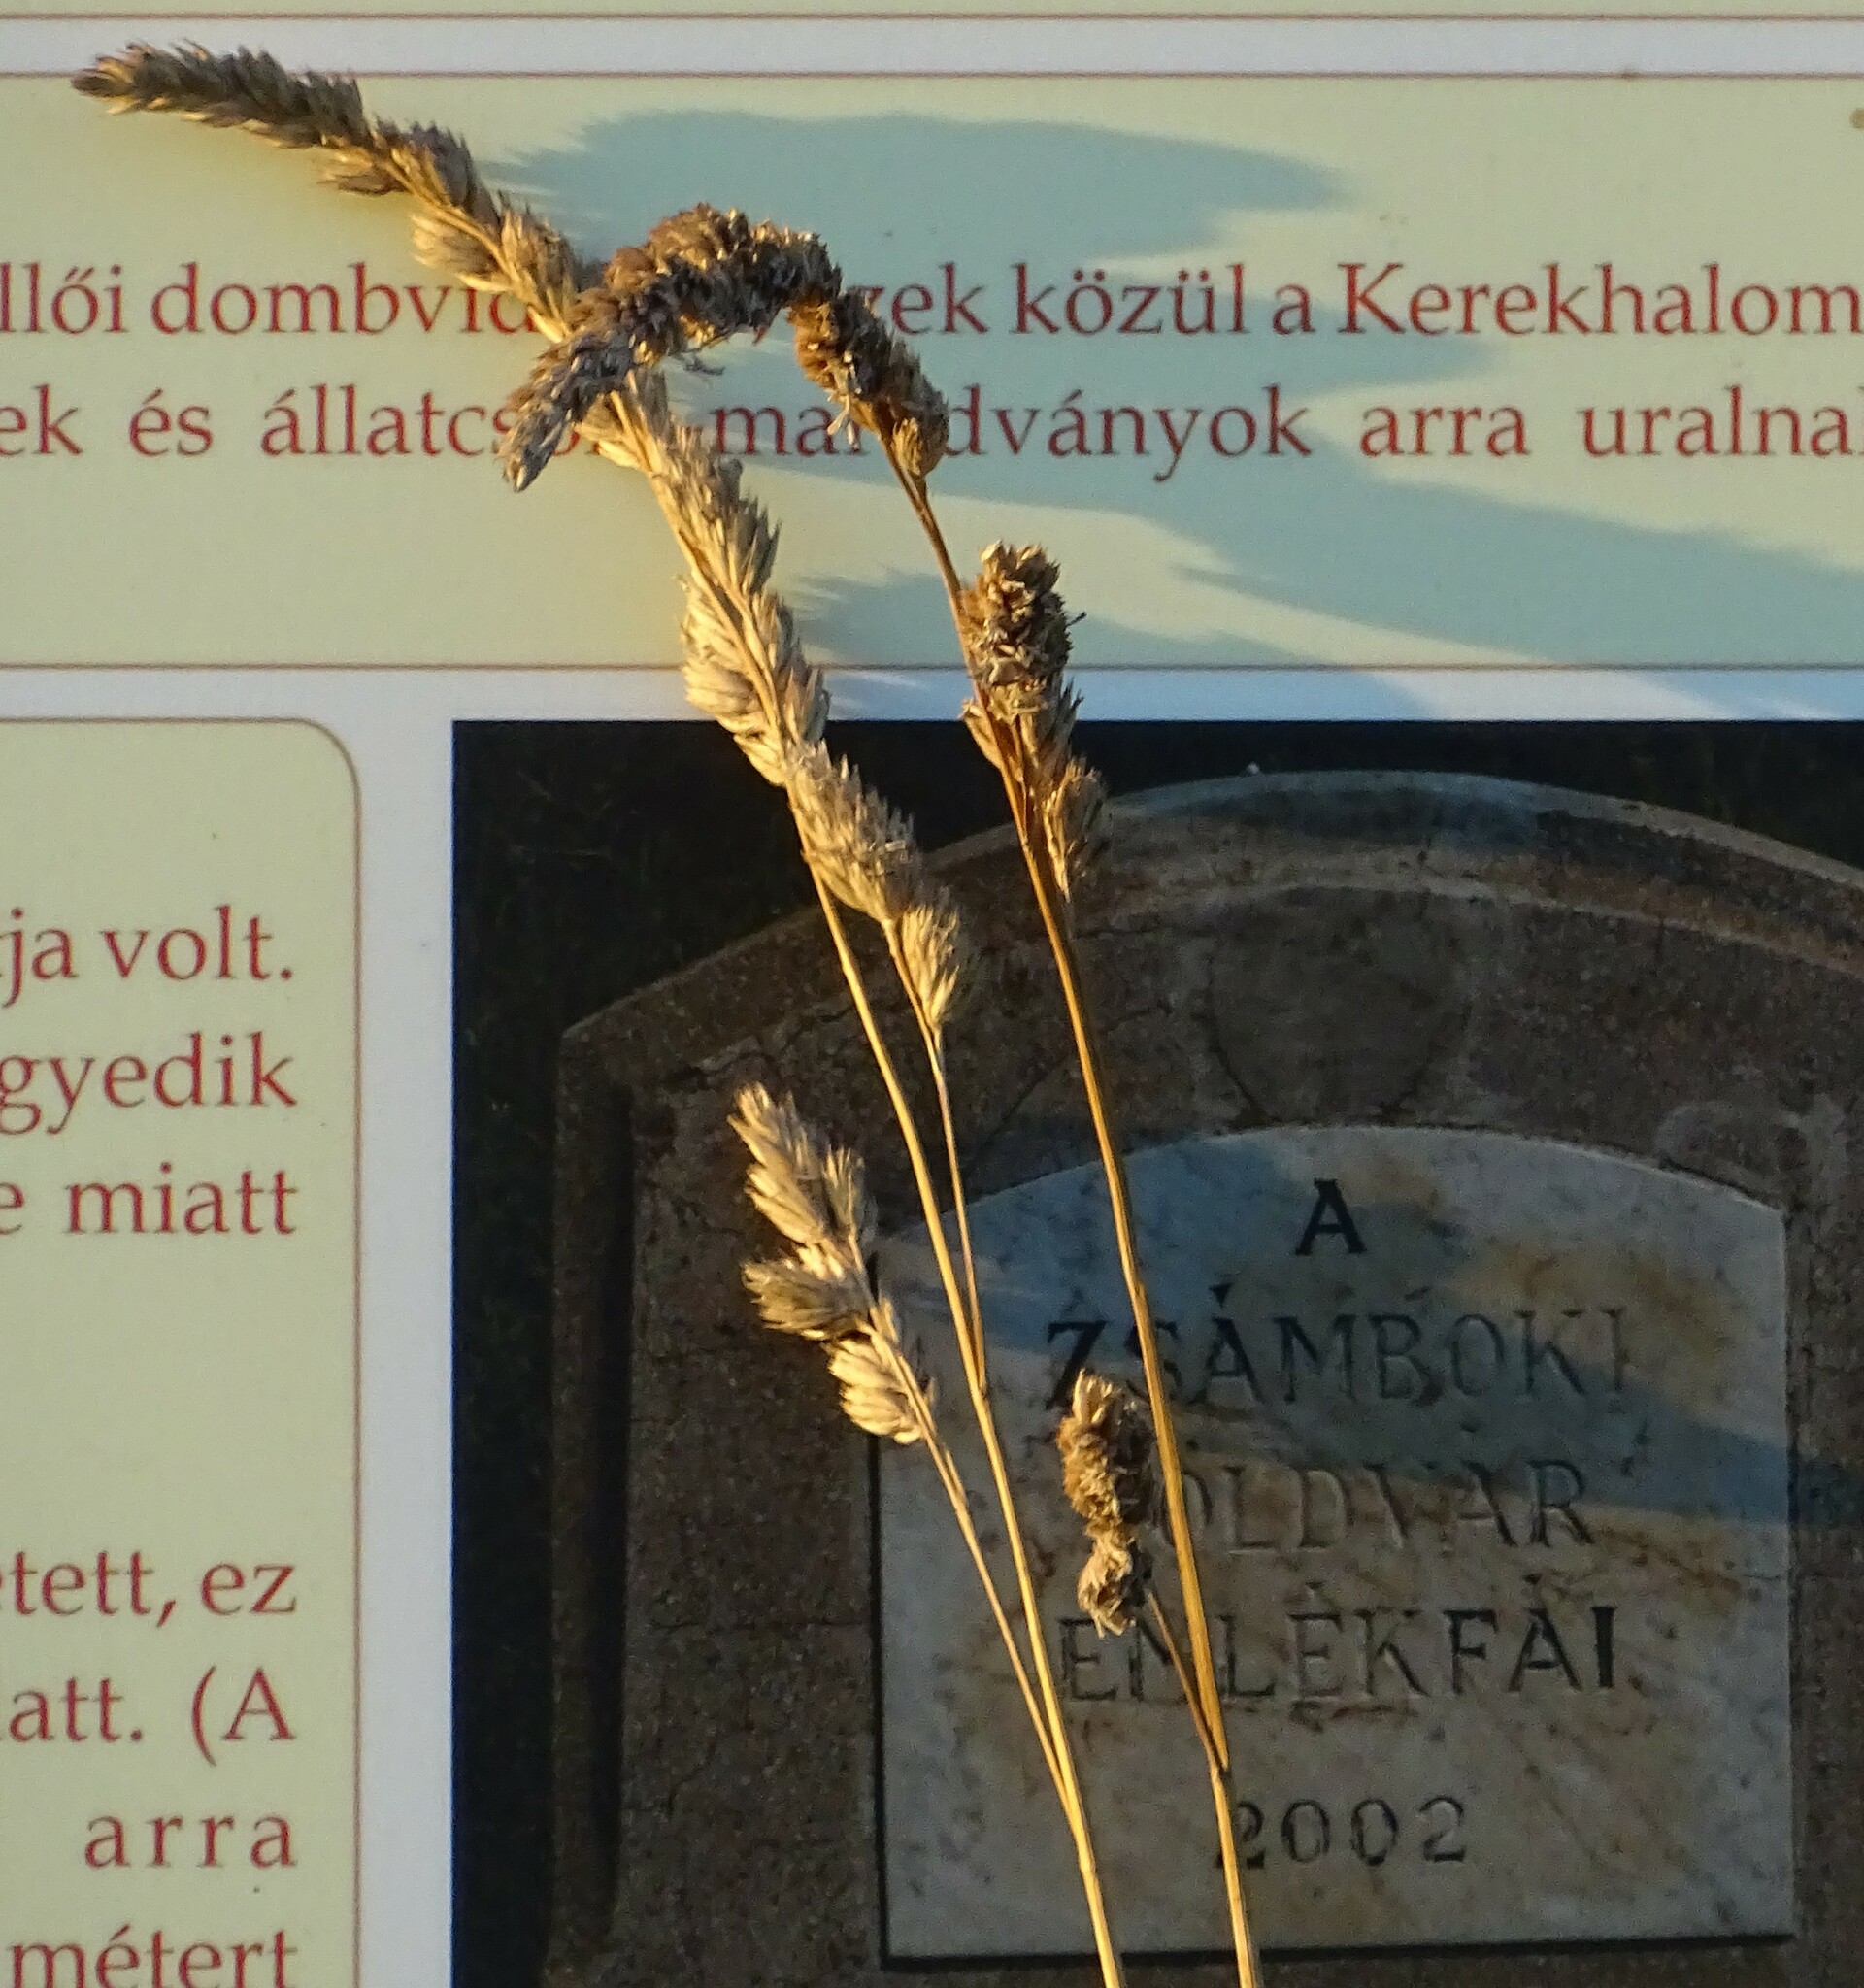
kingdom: Plantae
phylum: Tracheophyta
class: Liliopsida
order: Poales
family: Poaceae
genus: Dactylis
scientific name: Dactylis glomerata
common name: Orchardgrass
